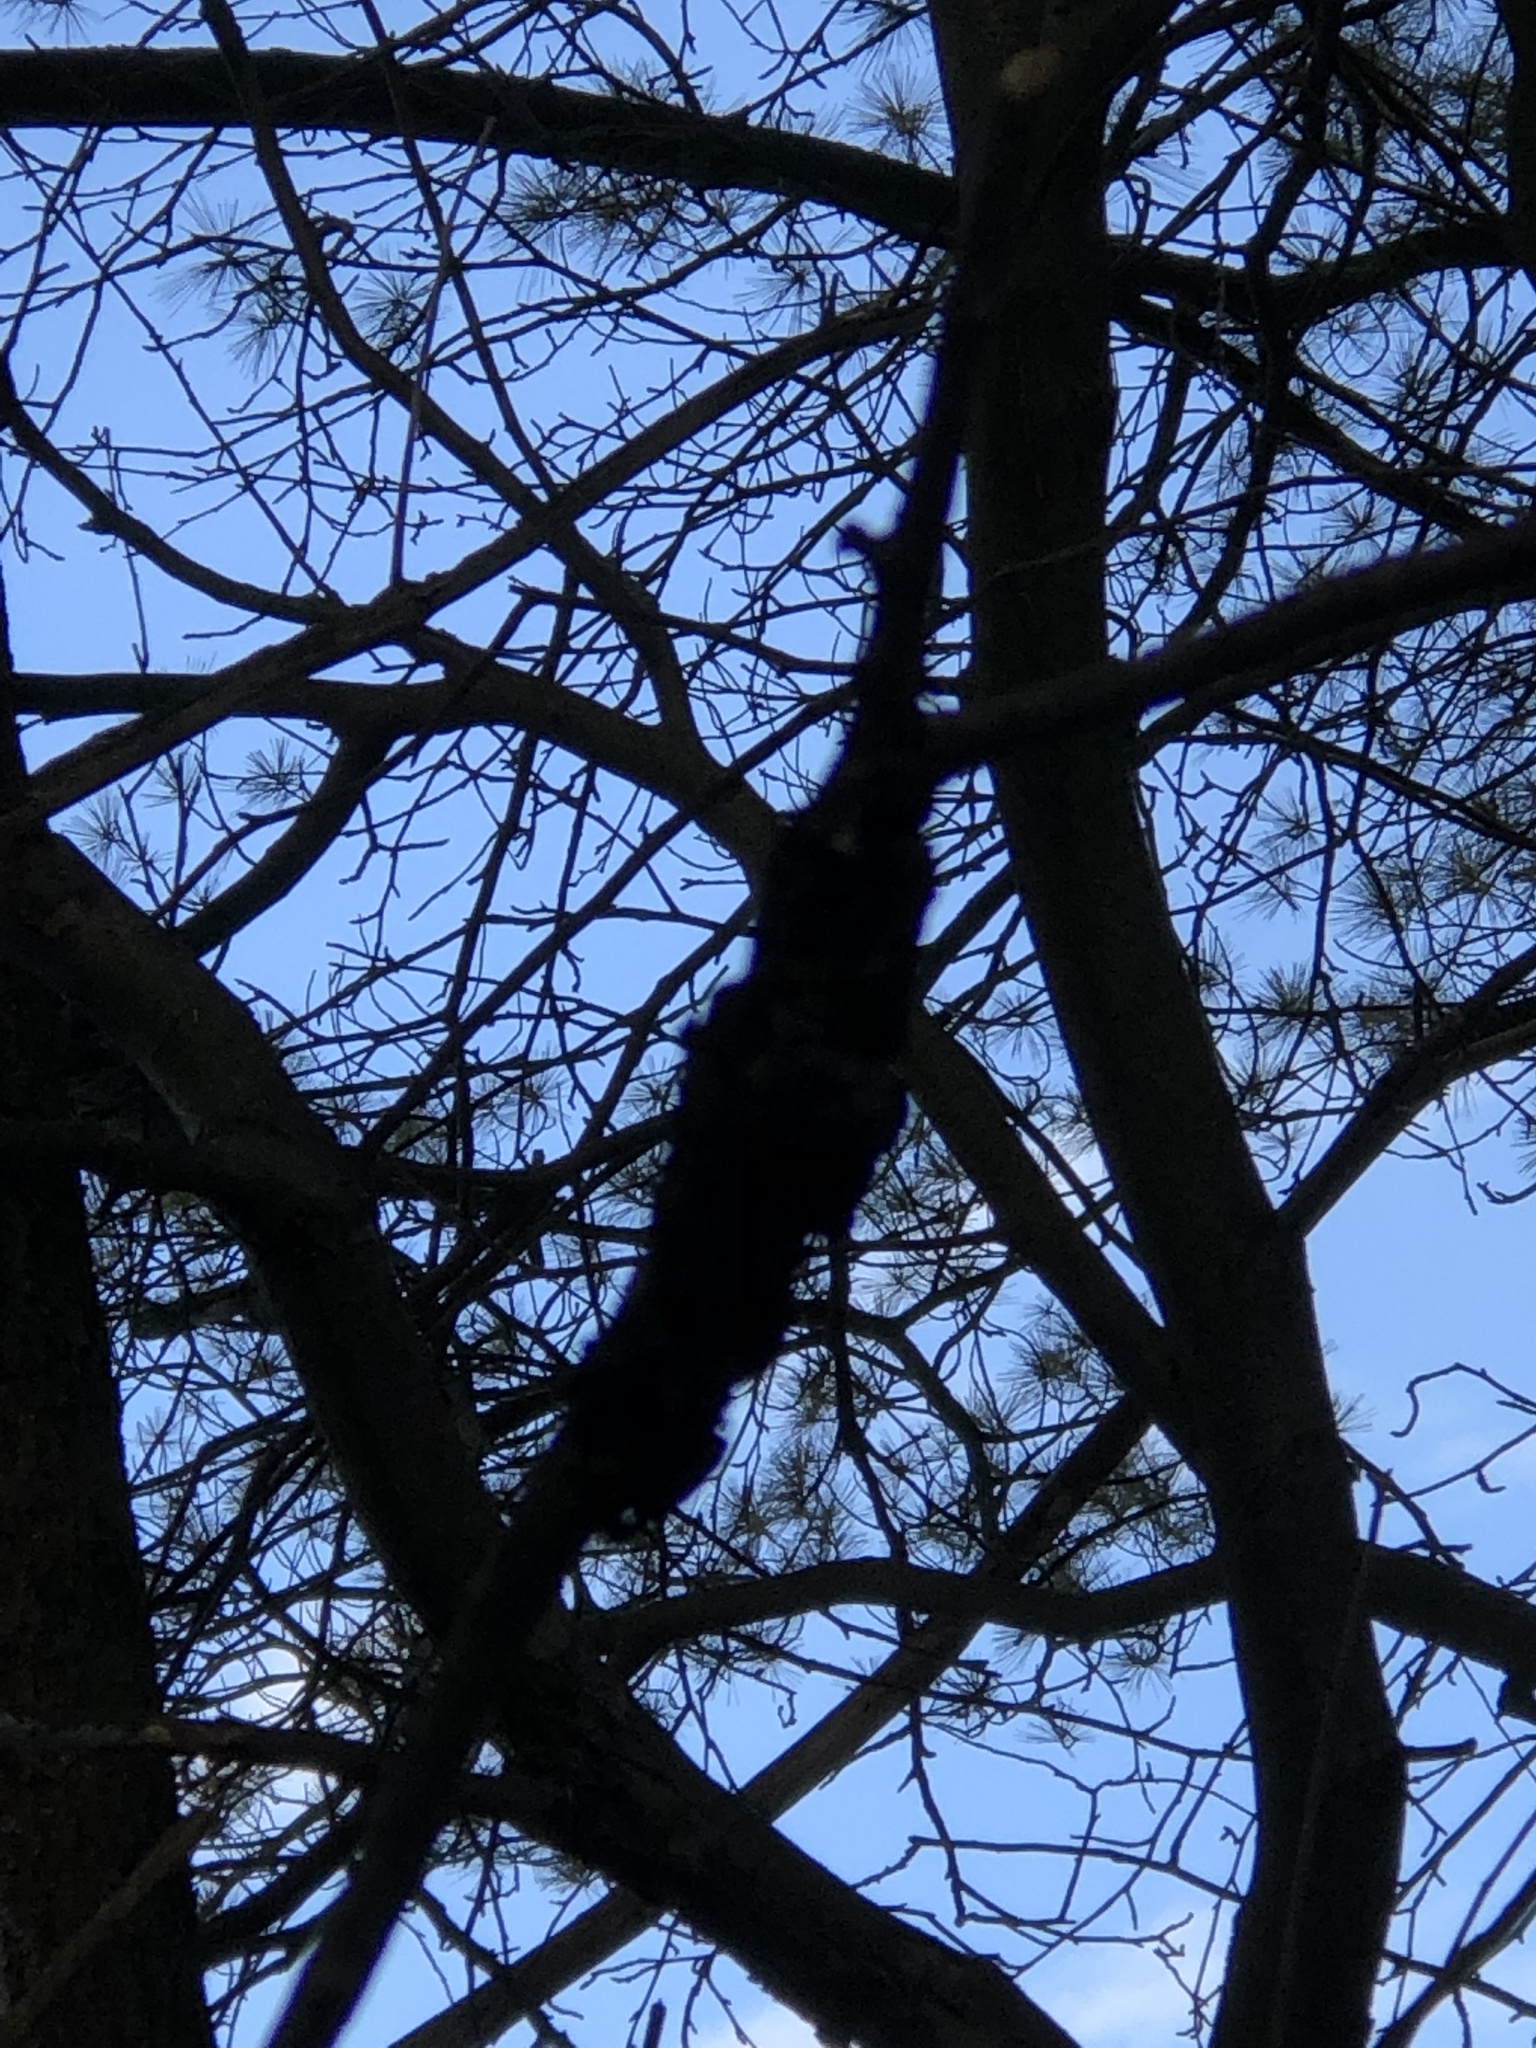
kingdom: Fungi
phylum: Ascomycota
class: Dothideomycetes
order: Venturiales
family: Venturiaceae
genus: Apiosporina
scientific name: Apiosporina morbosa
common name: Black knot
